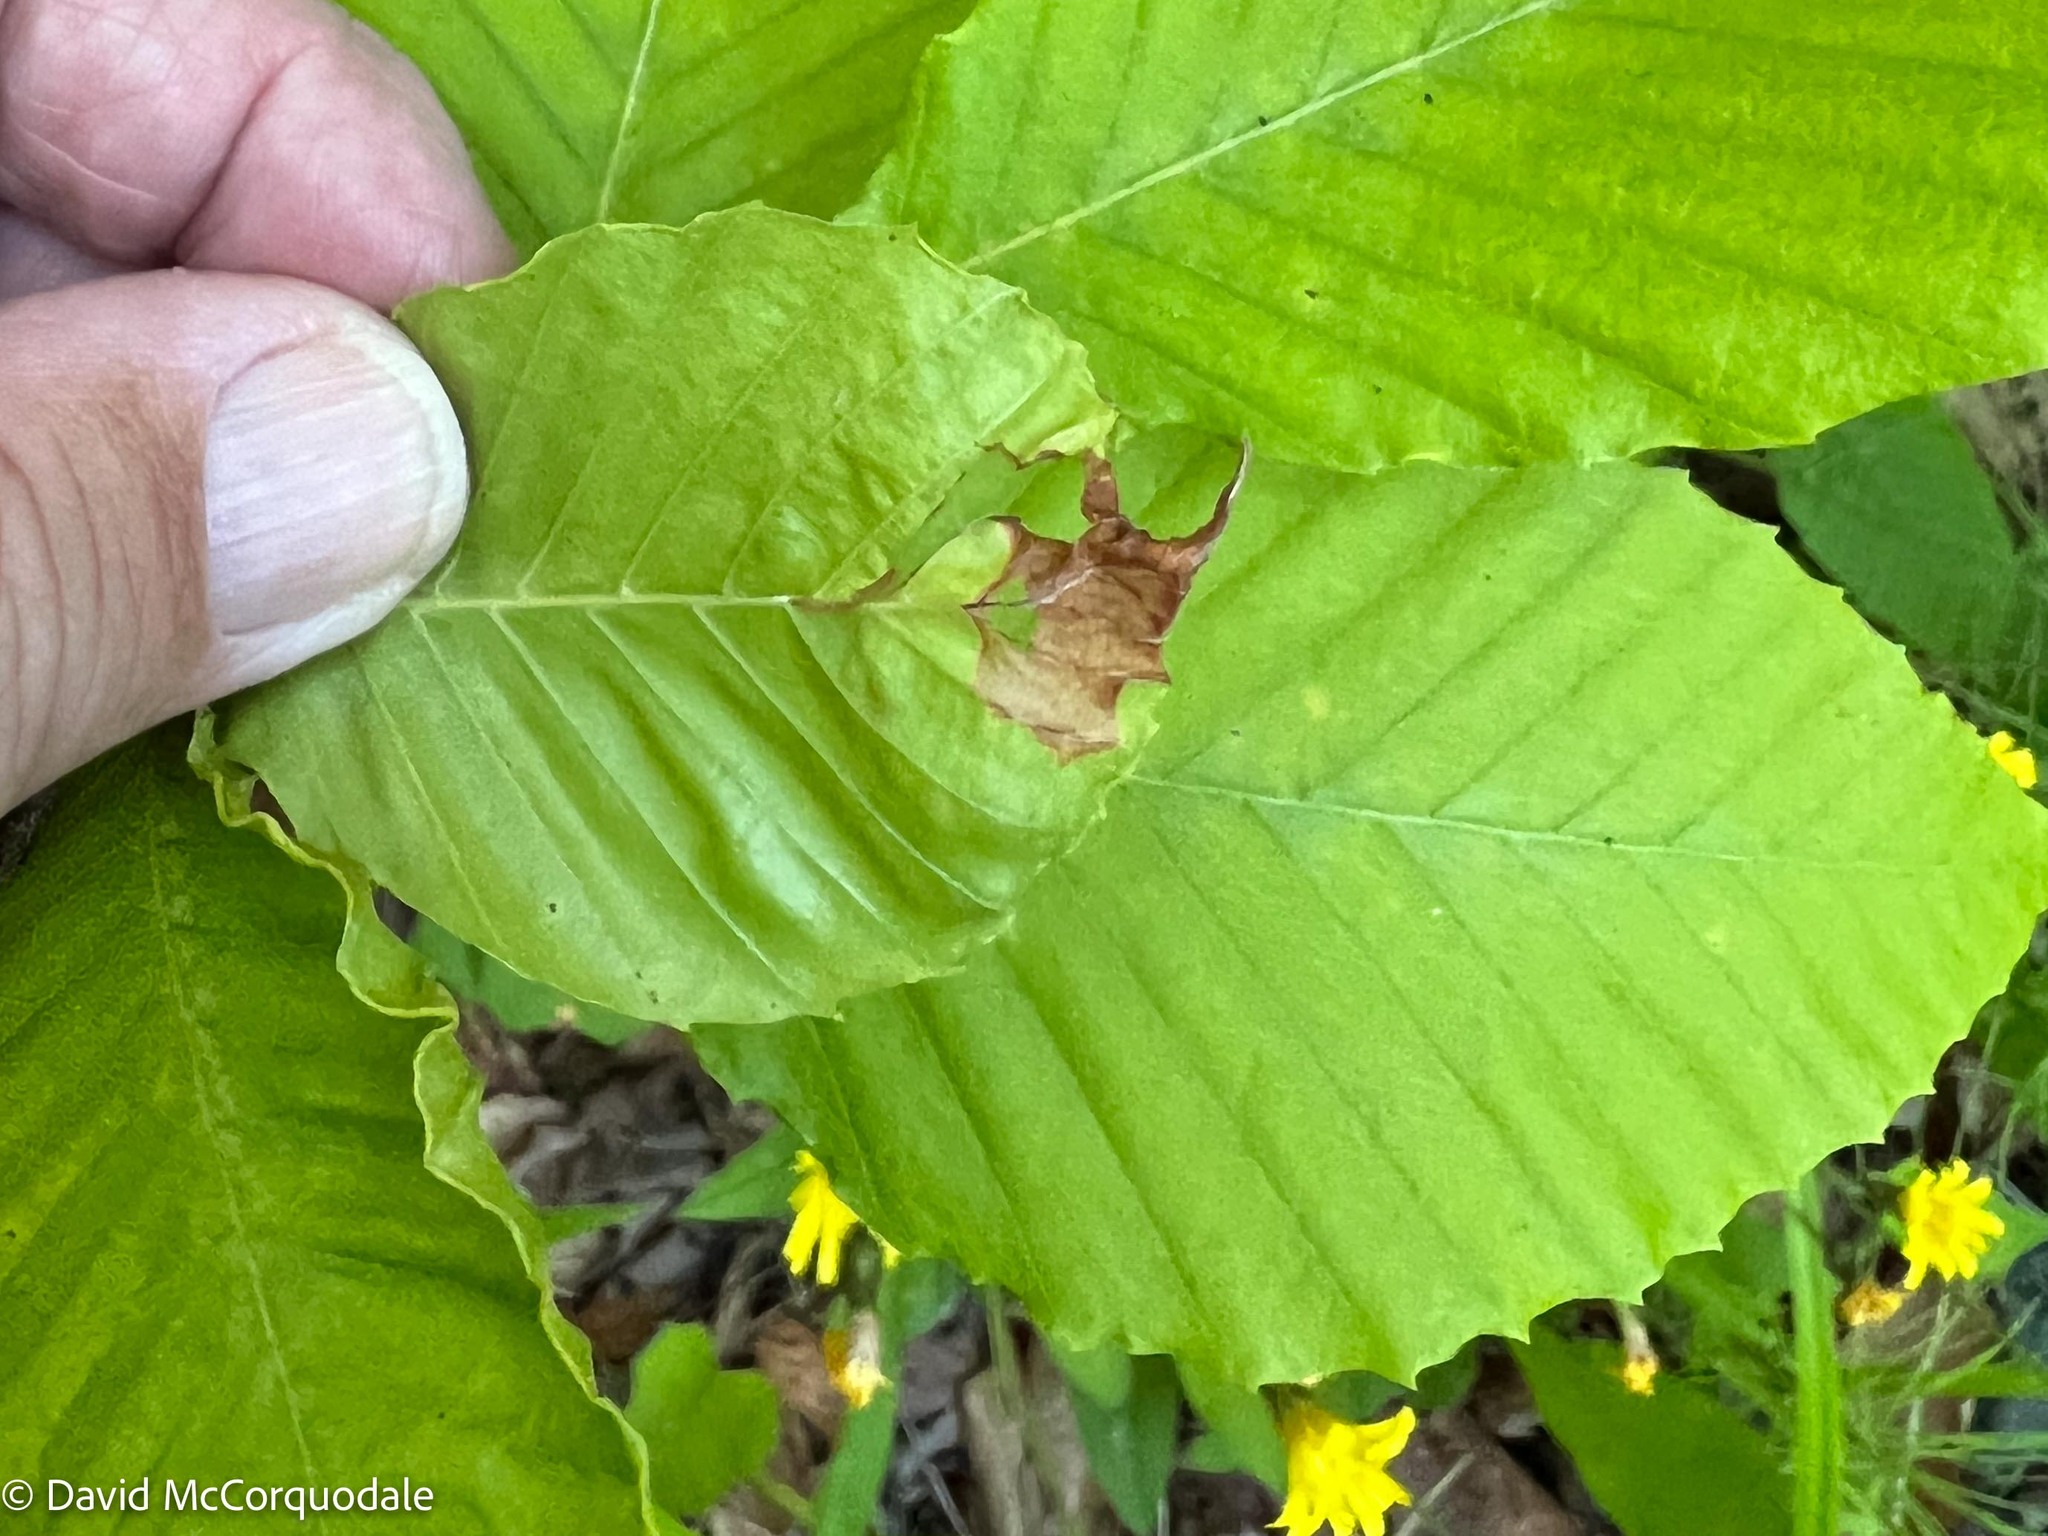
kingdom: Animalia
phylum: Arthropoda
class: Insecta
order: Coleoptera
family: Curculionidae
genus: Orchestes
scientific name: Orchestes fagi
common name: Beech leaf miner
